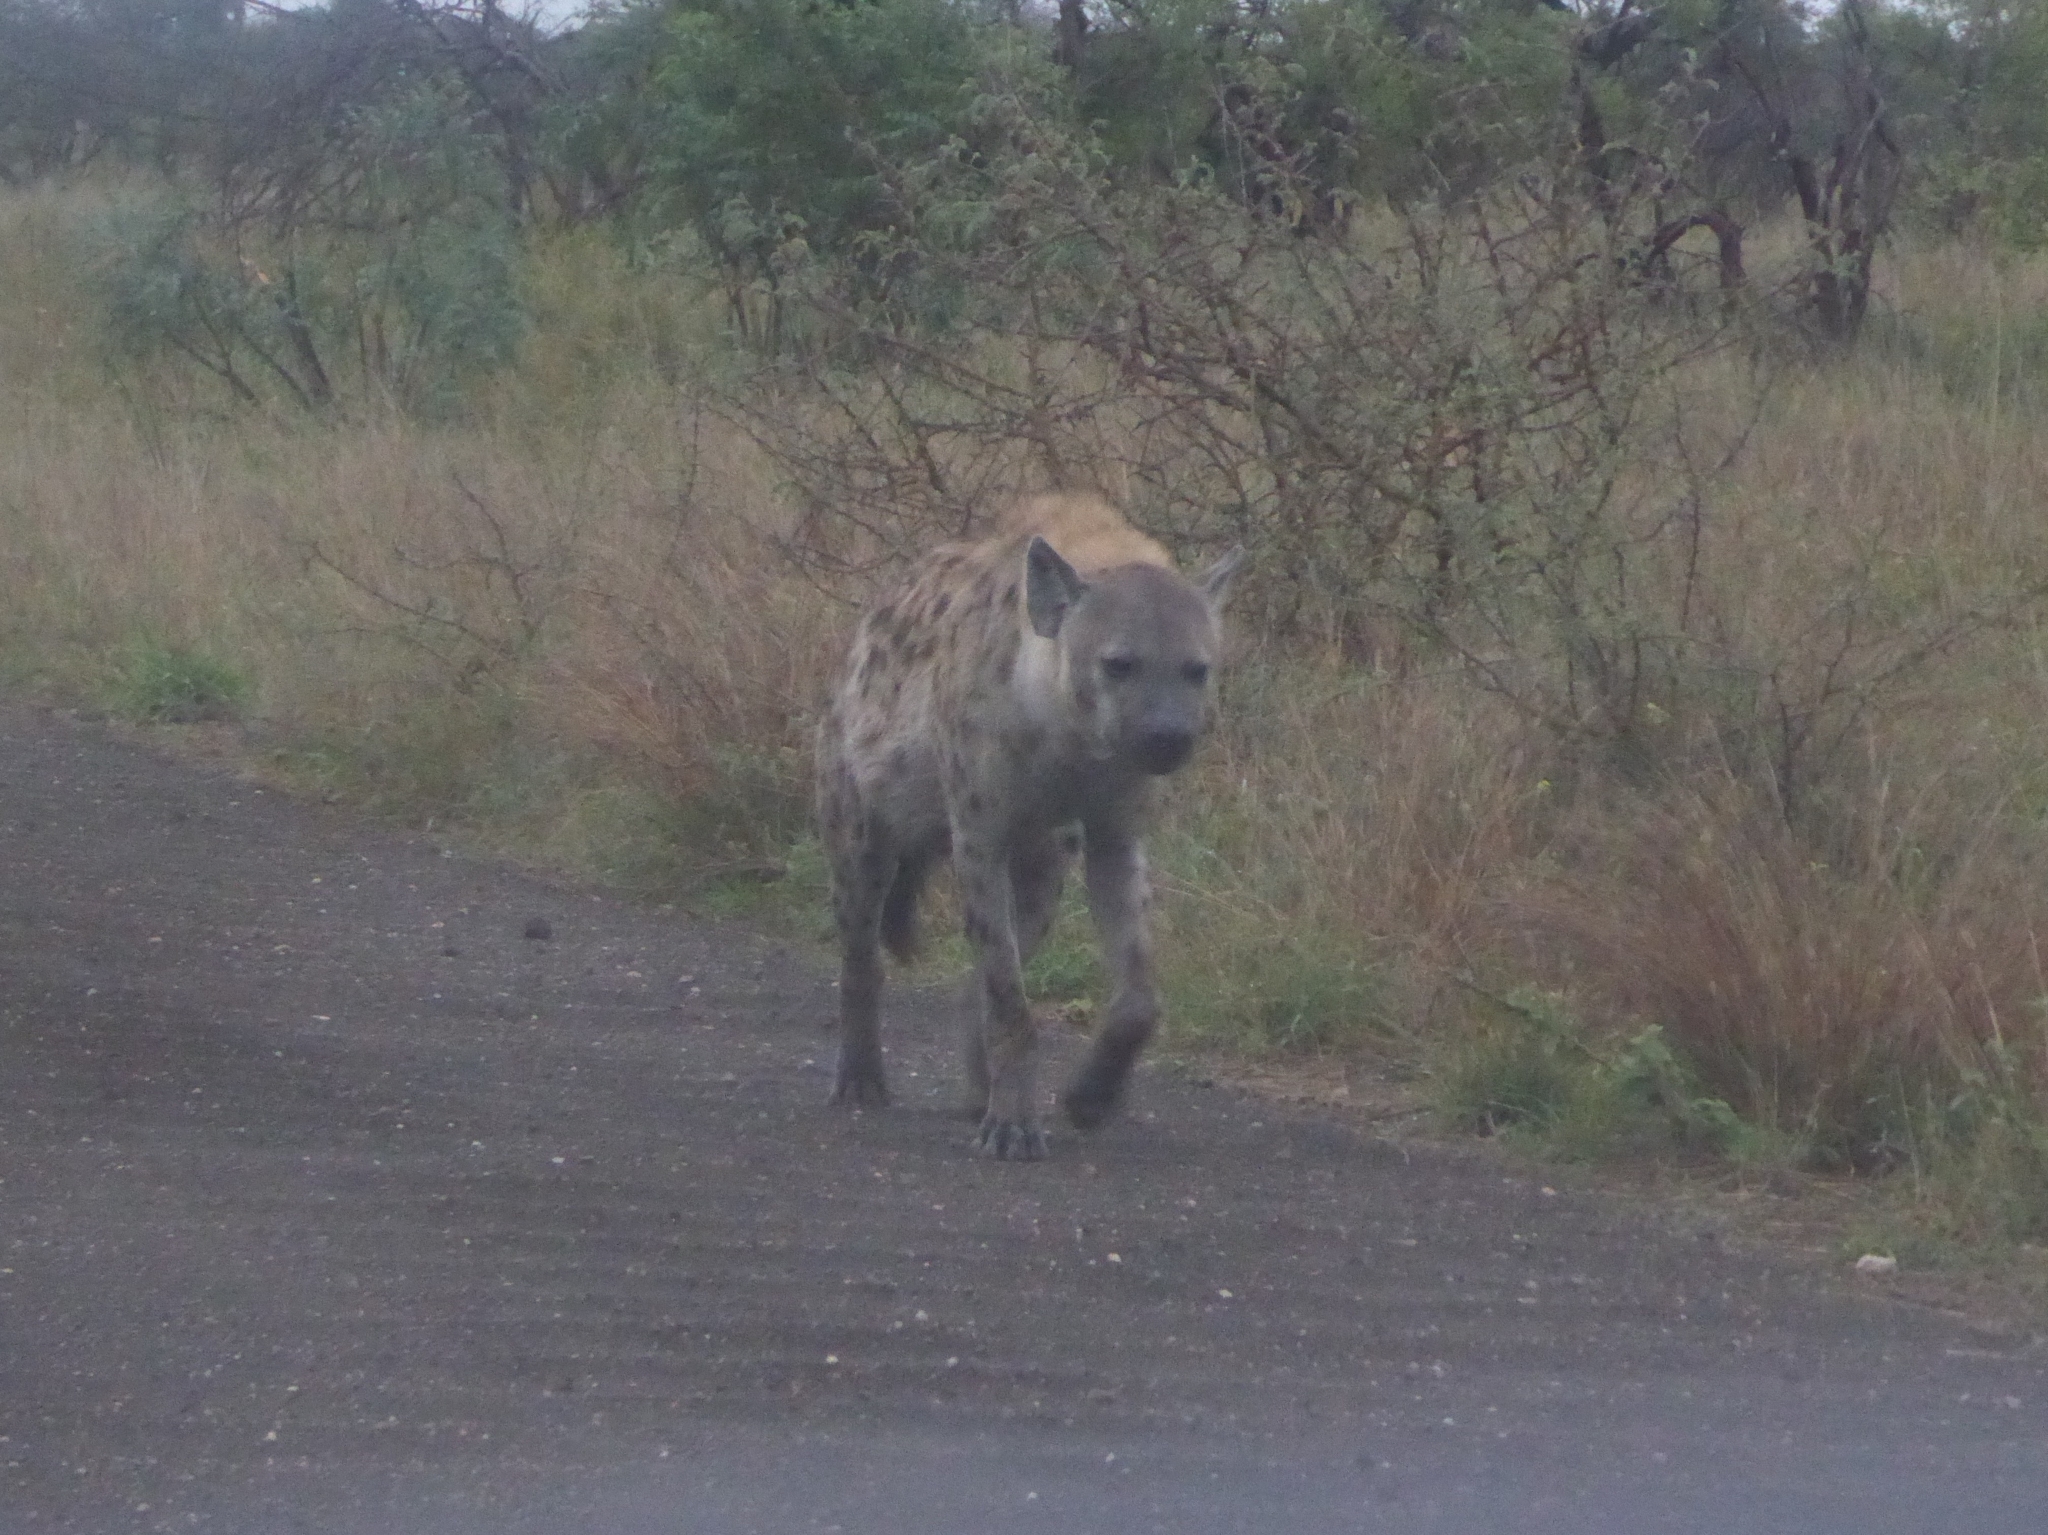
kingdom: Animalia
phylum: Chordata
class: Mammalia
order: Carnivora
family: Hyaenidae
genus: Crocuta
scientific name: Crocuta crocuta
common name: Spotted hyaena
